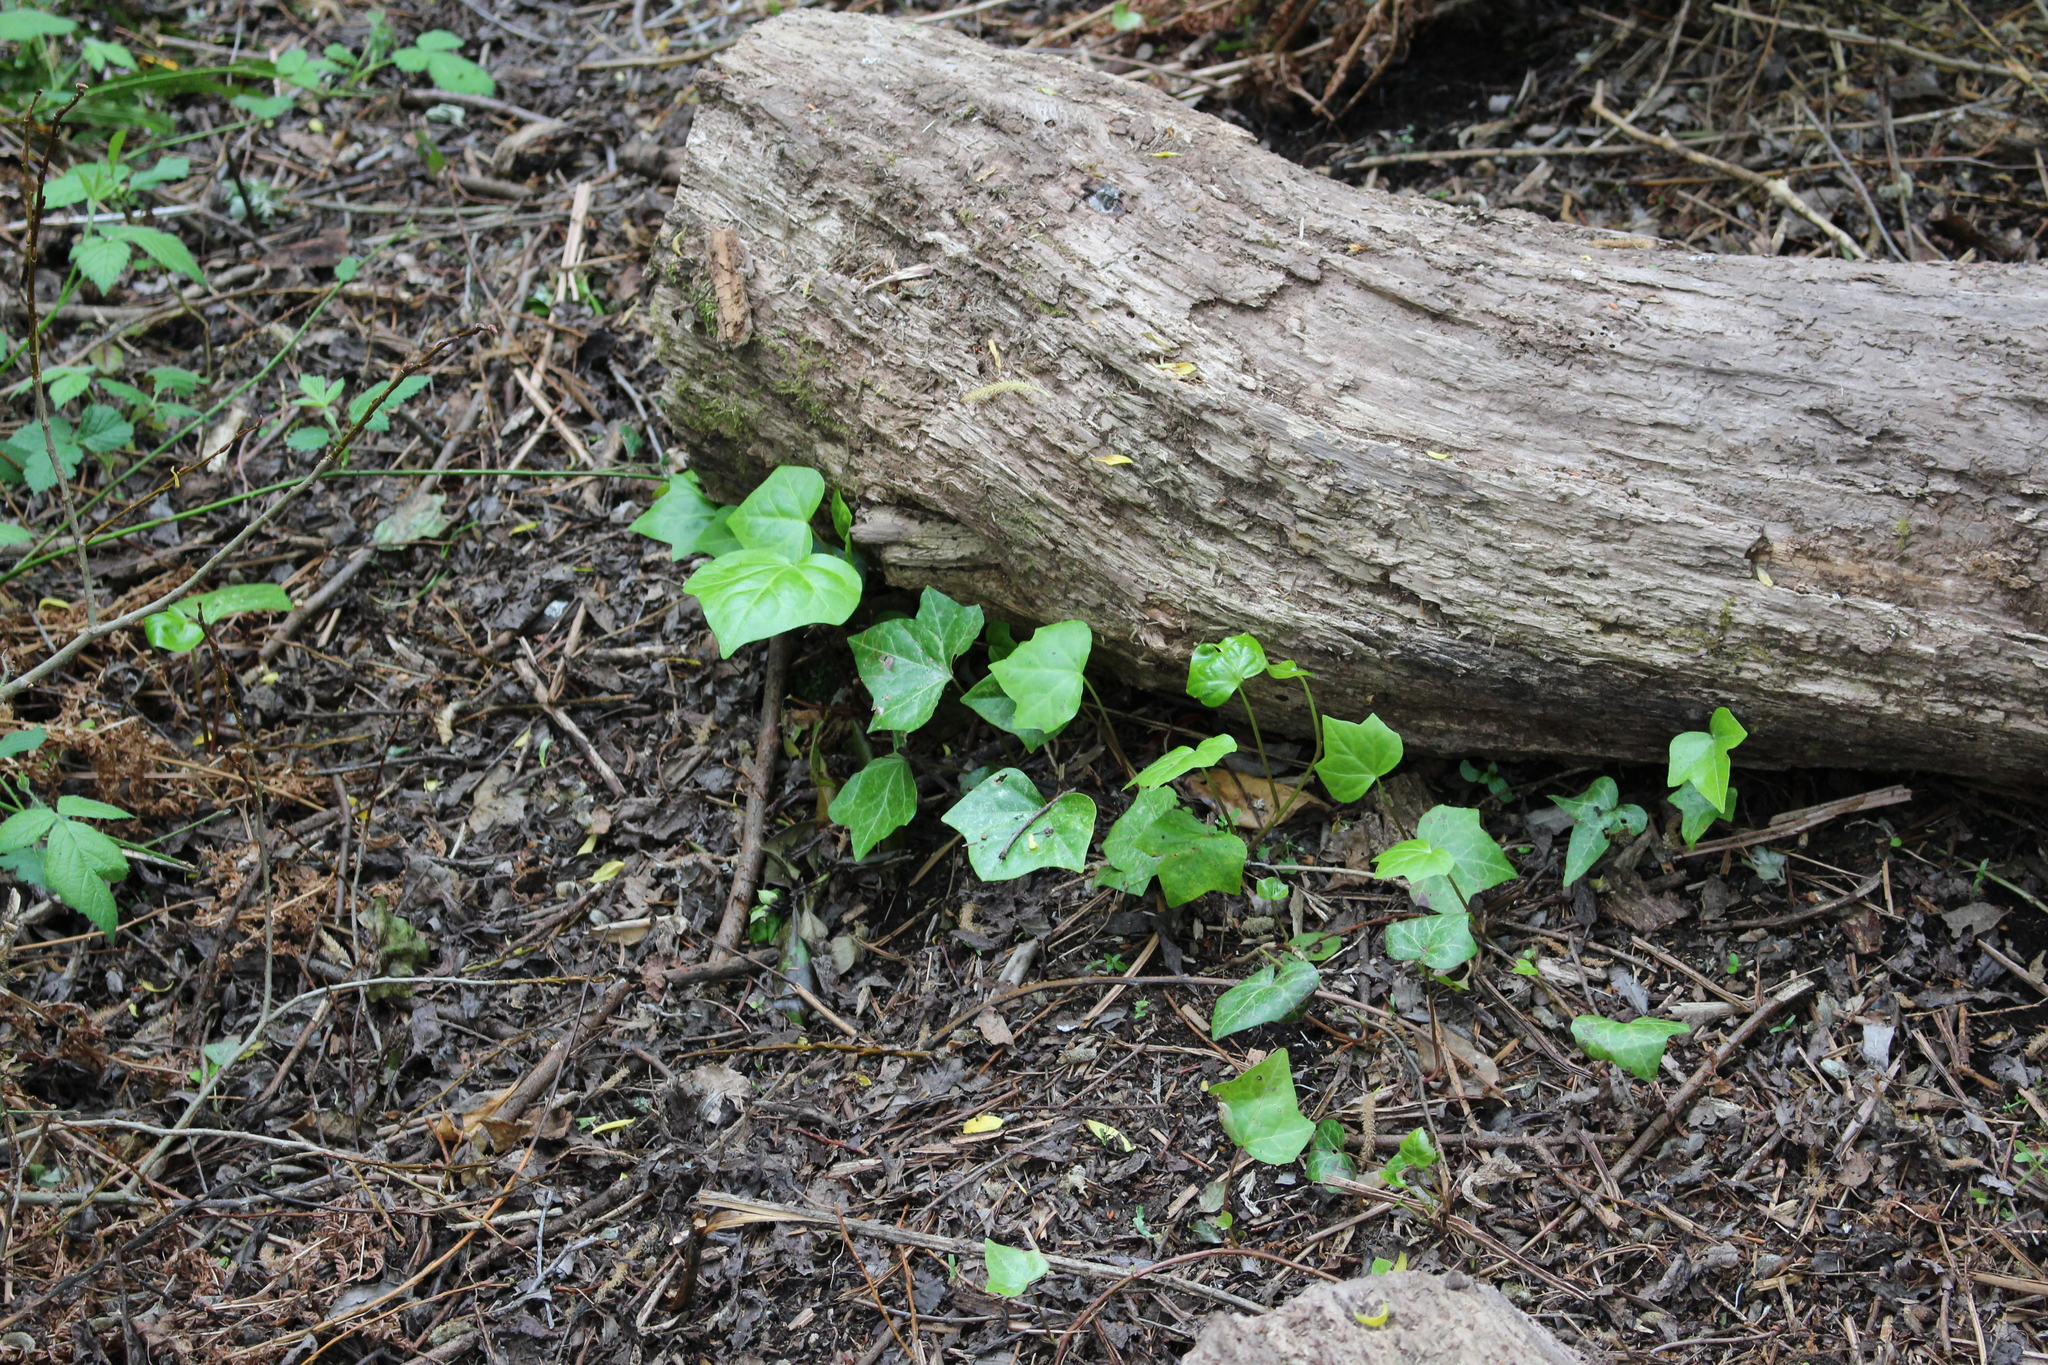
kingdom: Plantae
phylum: Tracheophyta
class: Magnoliopsida
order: Apiales
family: Araliaceae
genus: Hedera
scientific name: Hedera helix
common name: Ivy
